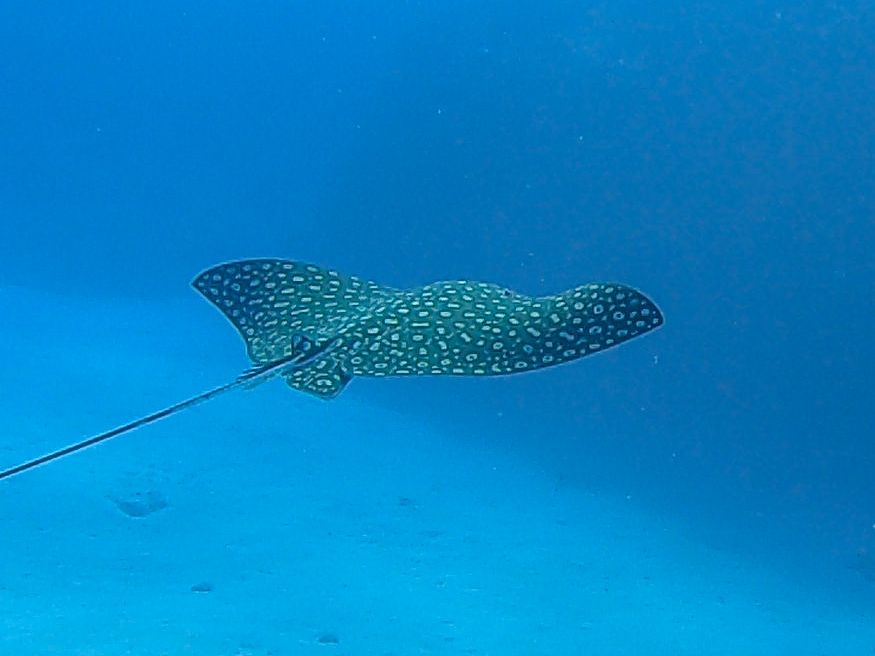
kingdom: Animalia
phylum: Chordata
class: Elasmobranchii
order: Myliobatiformes
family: Myliobatidae
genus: Aetobatus
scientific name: Aetobatus narinari
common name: Spotted eagle ray
